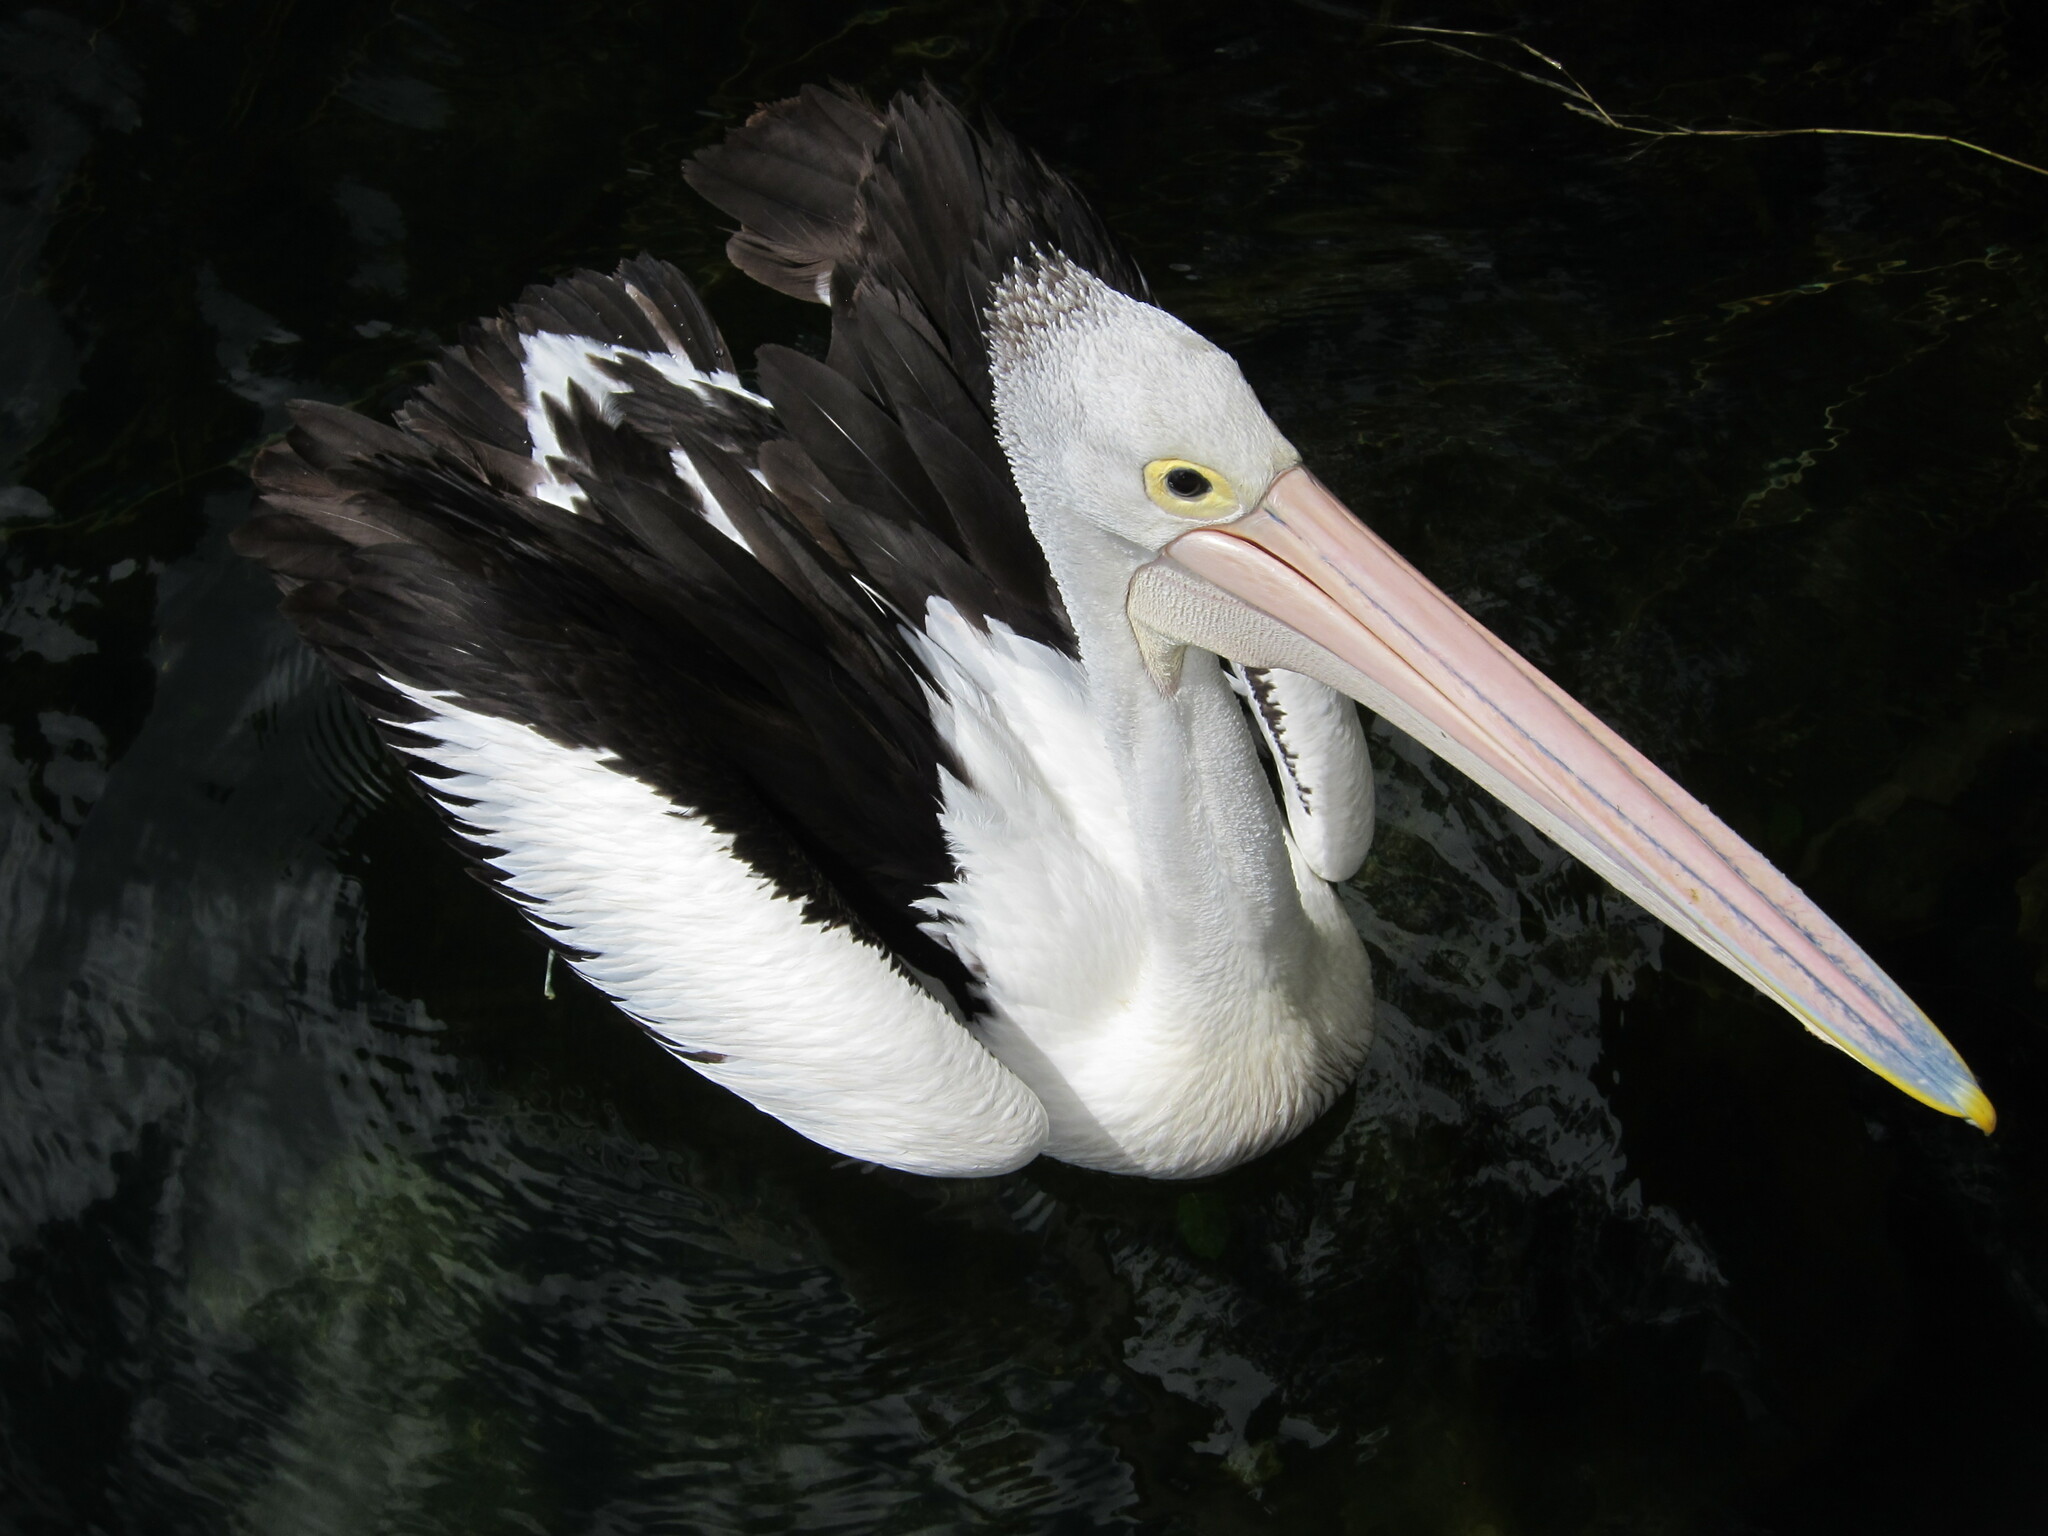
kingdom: Animalia
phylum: Chordata
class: Aves
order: Pelecaniformes
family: Pelecanidae
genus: Pelecanus
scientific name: Pelecanus conspicillatus
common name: Australian pelican
